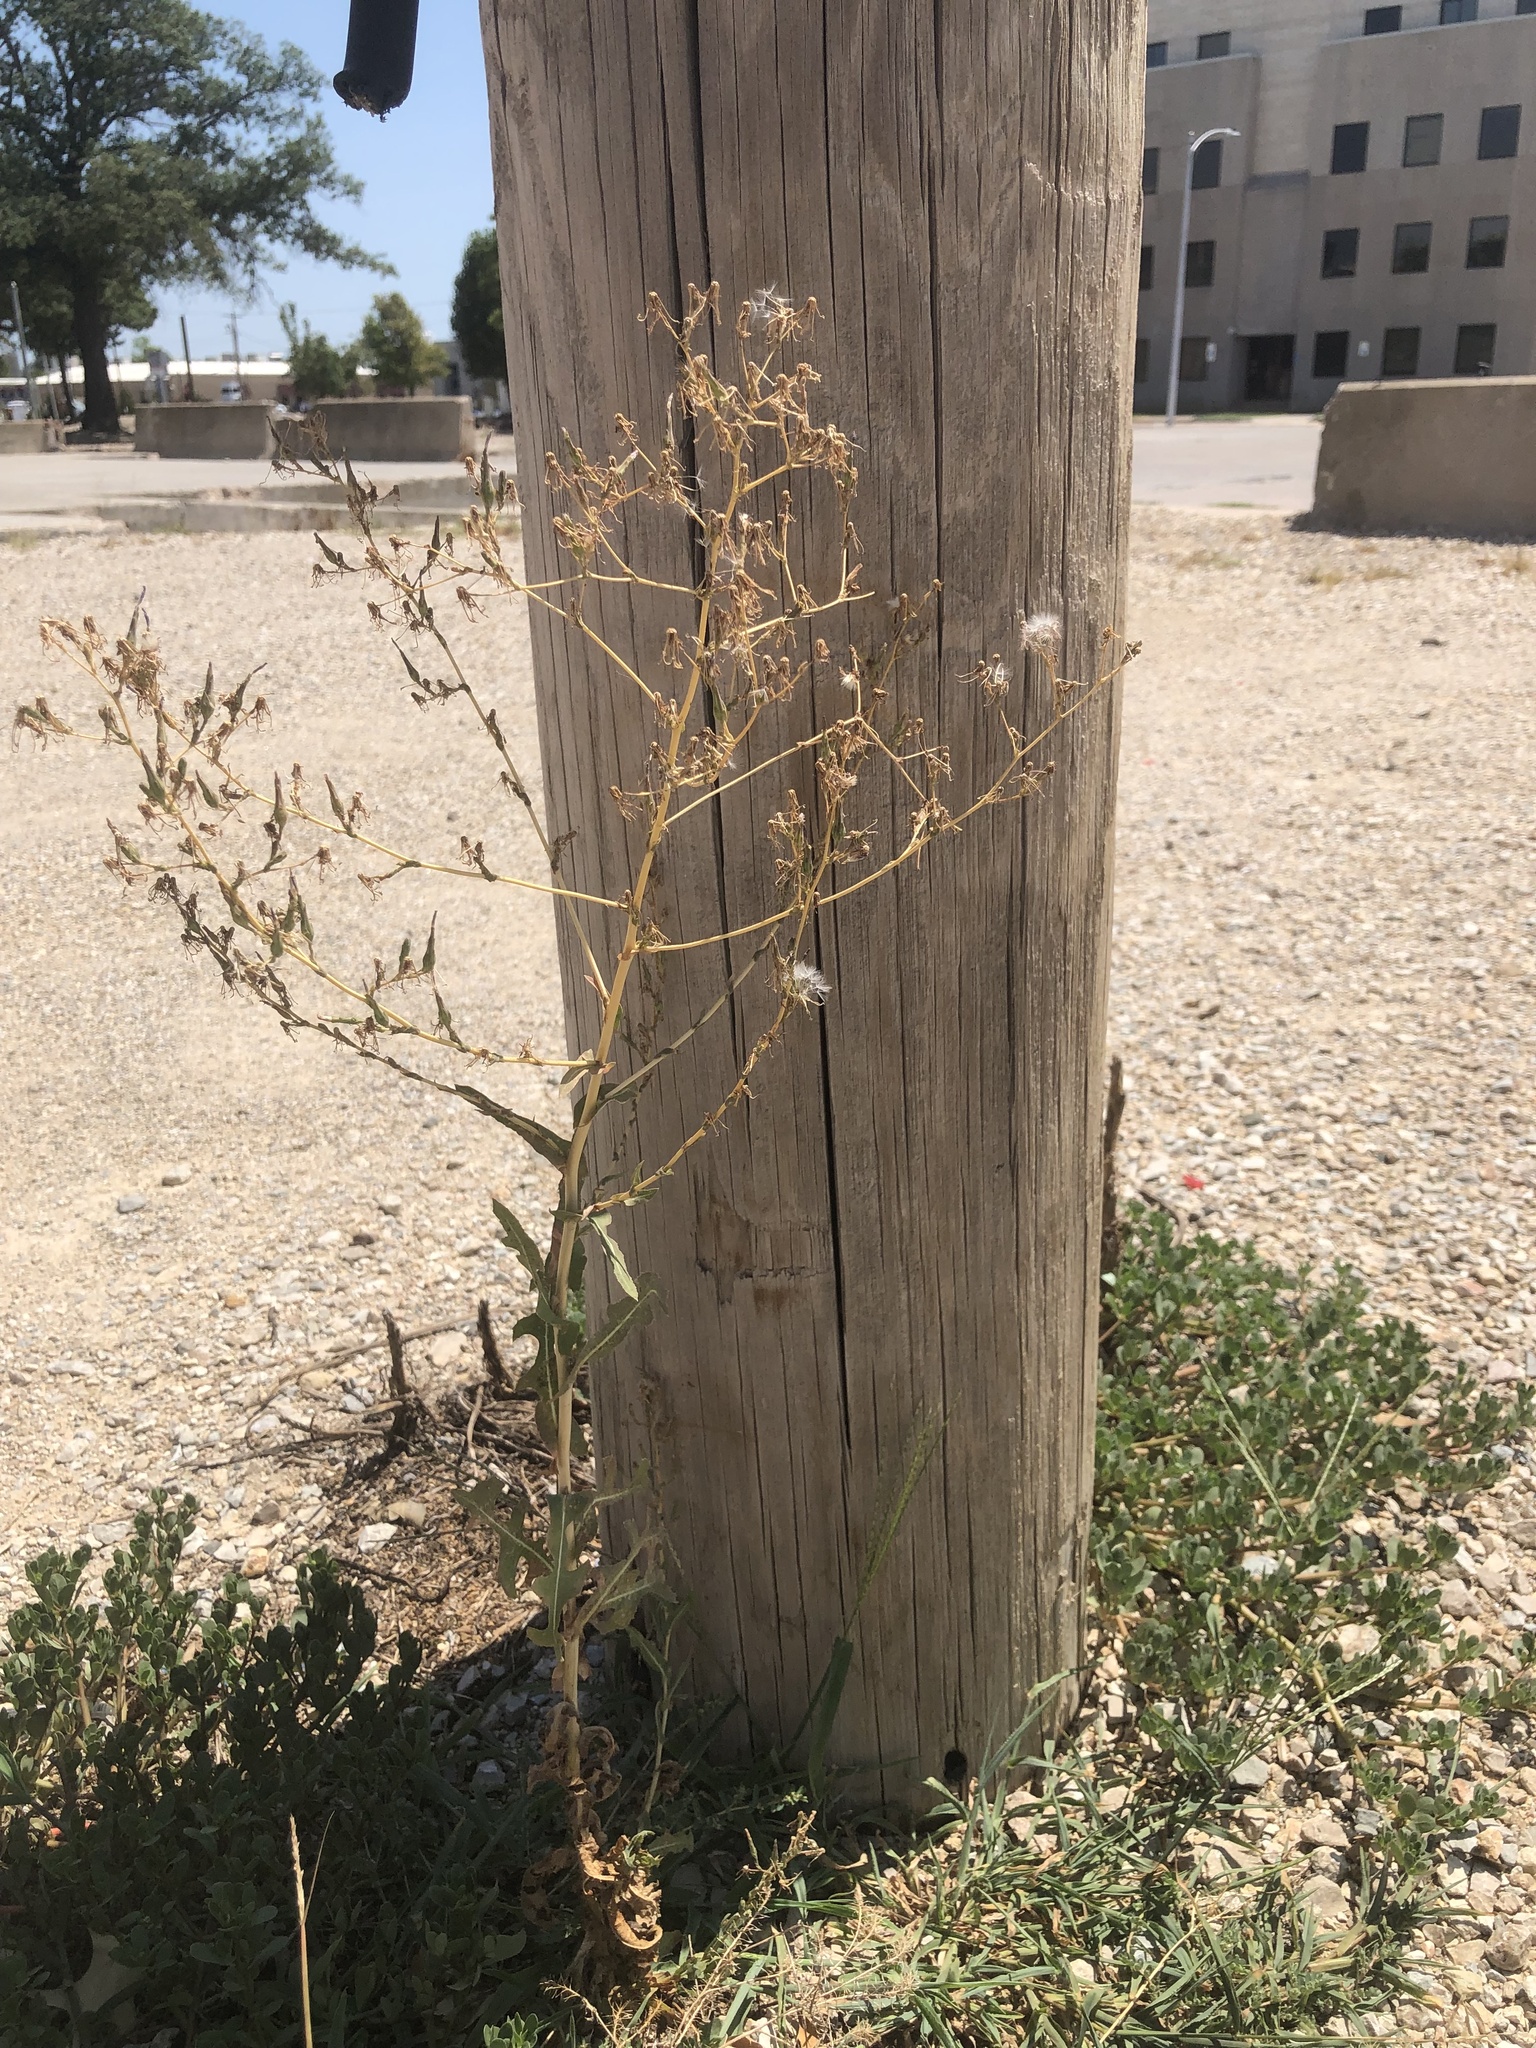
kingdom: Plantae
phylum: Tracheophyta
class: Magnoliopsida
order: Asterales
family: Asteraceae
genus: Lactuca
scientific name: Lactuca serriola
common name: Prickly lettuce
